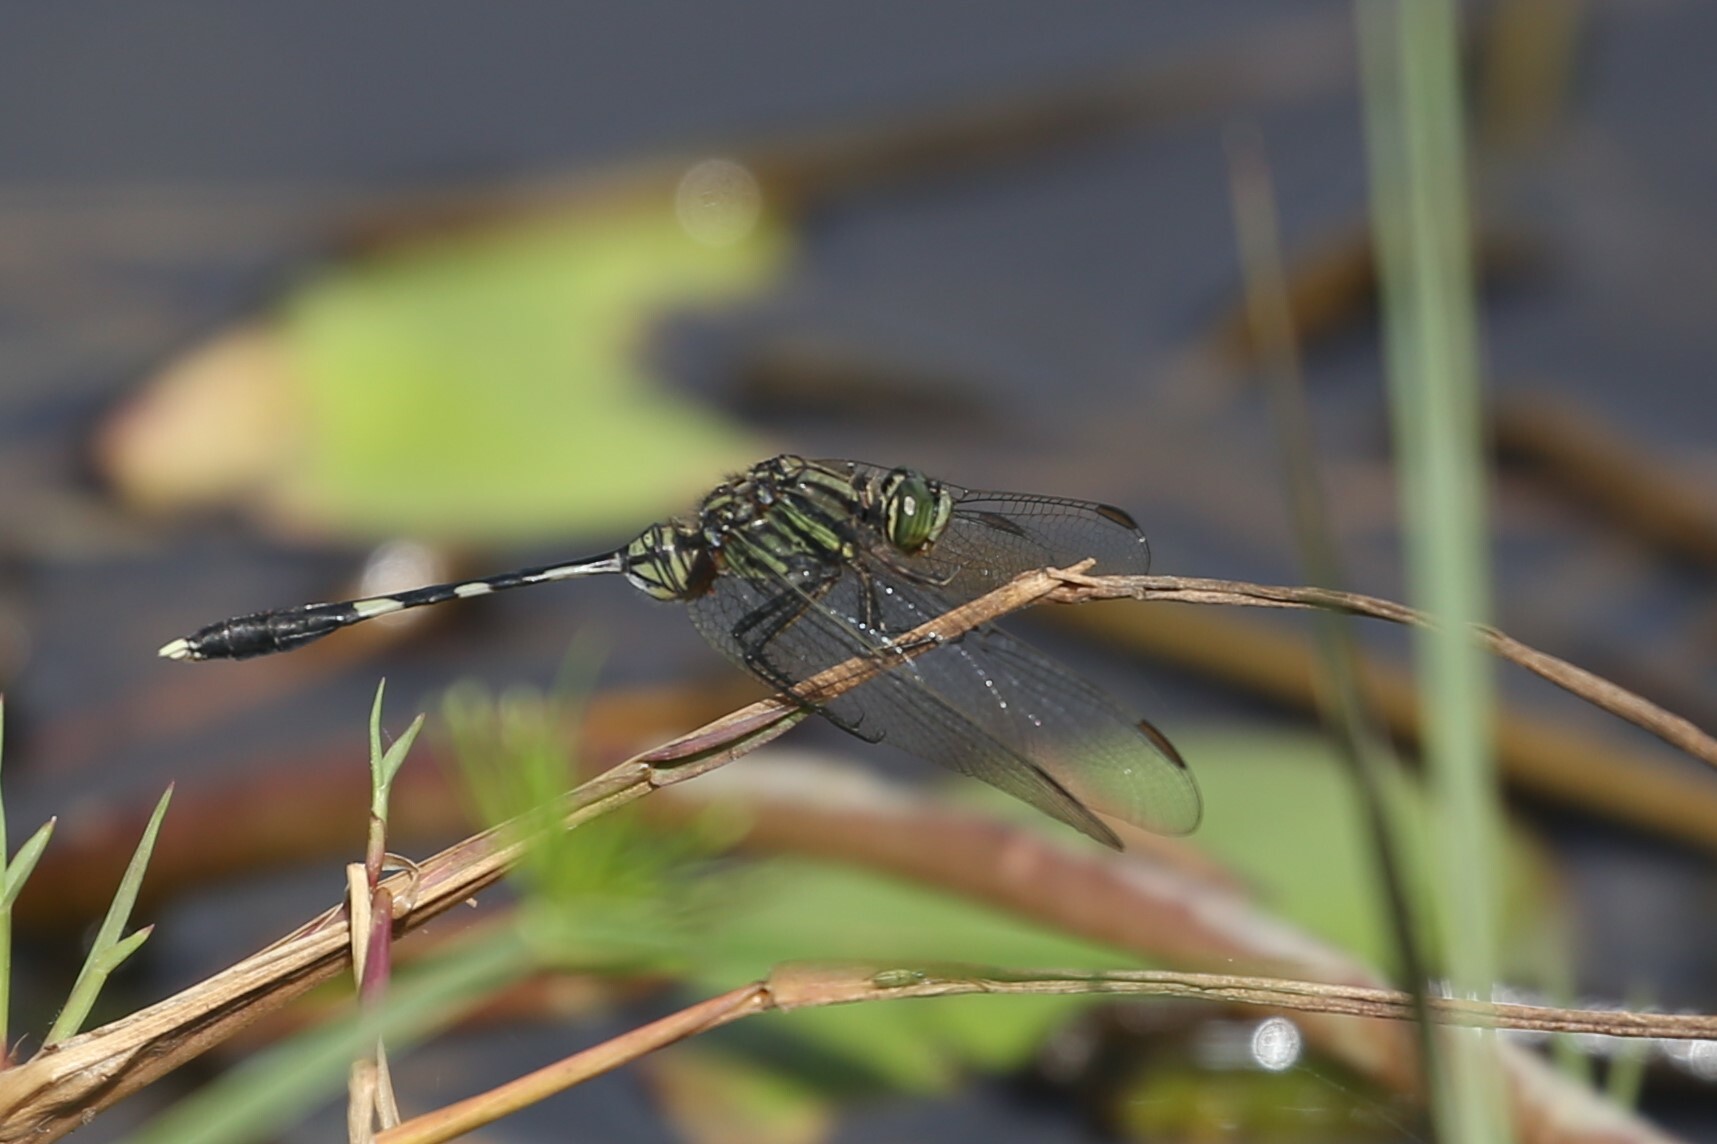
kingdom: Animalia
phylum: Arthropoda
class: Insecta
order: Odonata
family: Libellulidae
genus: Orthetrum
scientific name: Orthetrum sabina
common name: Slender skimmer
